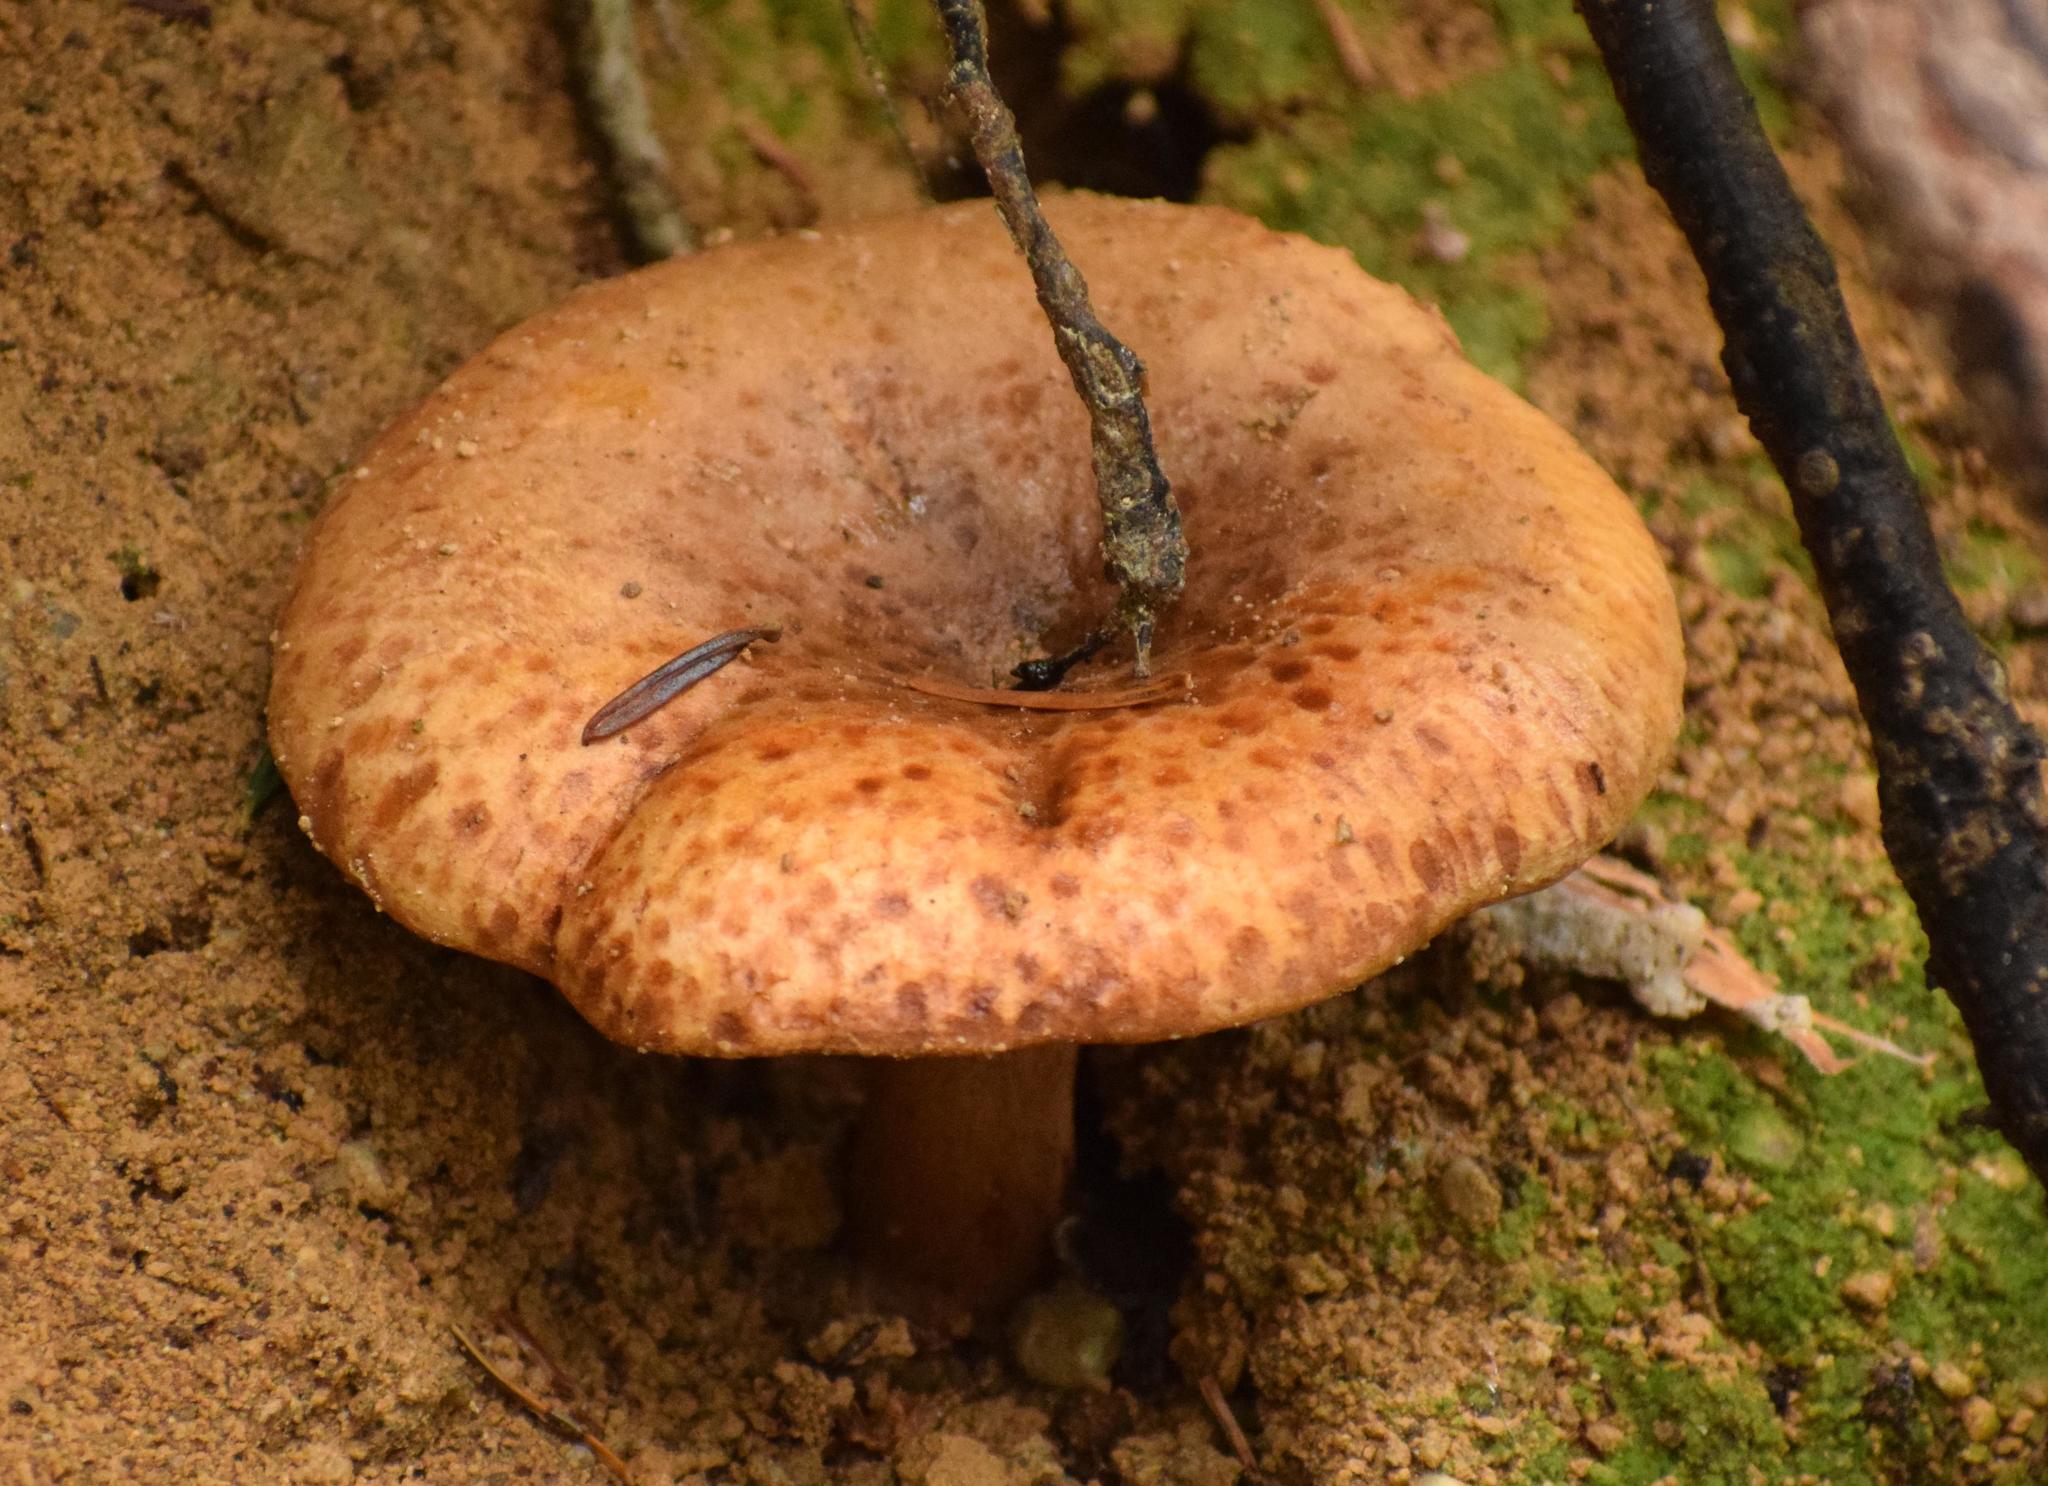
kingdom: Fungi
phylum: Basidiomycota
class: Agaricomycetes
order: Boletales
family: Paxillaceae
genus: Paxillus
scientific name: Paxillus involutus
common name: Brown roll rim
